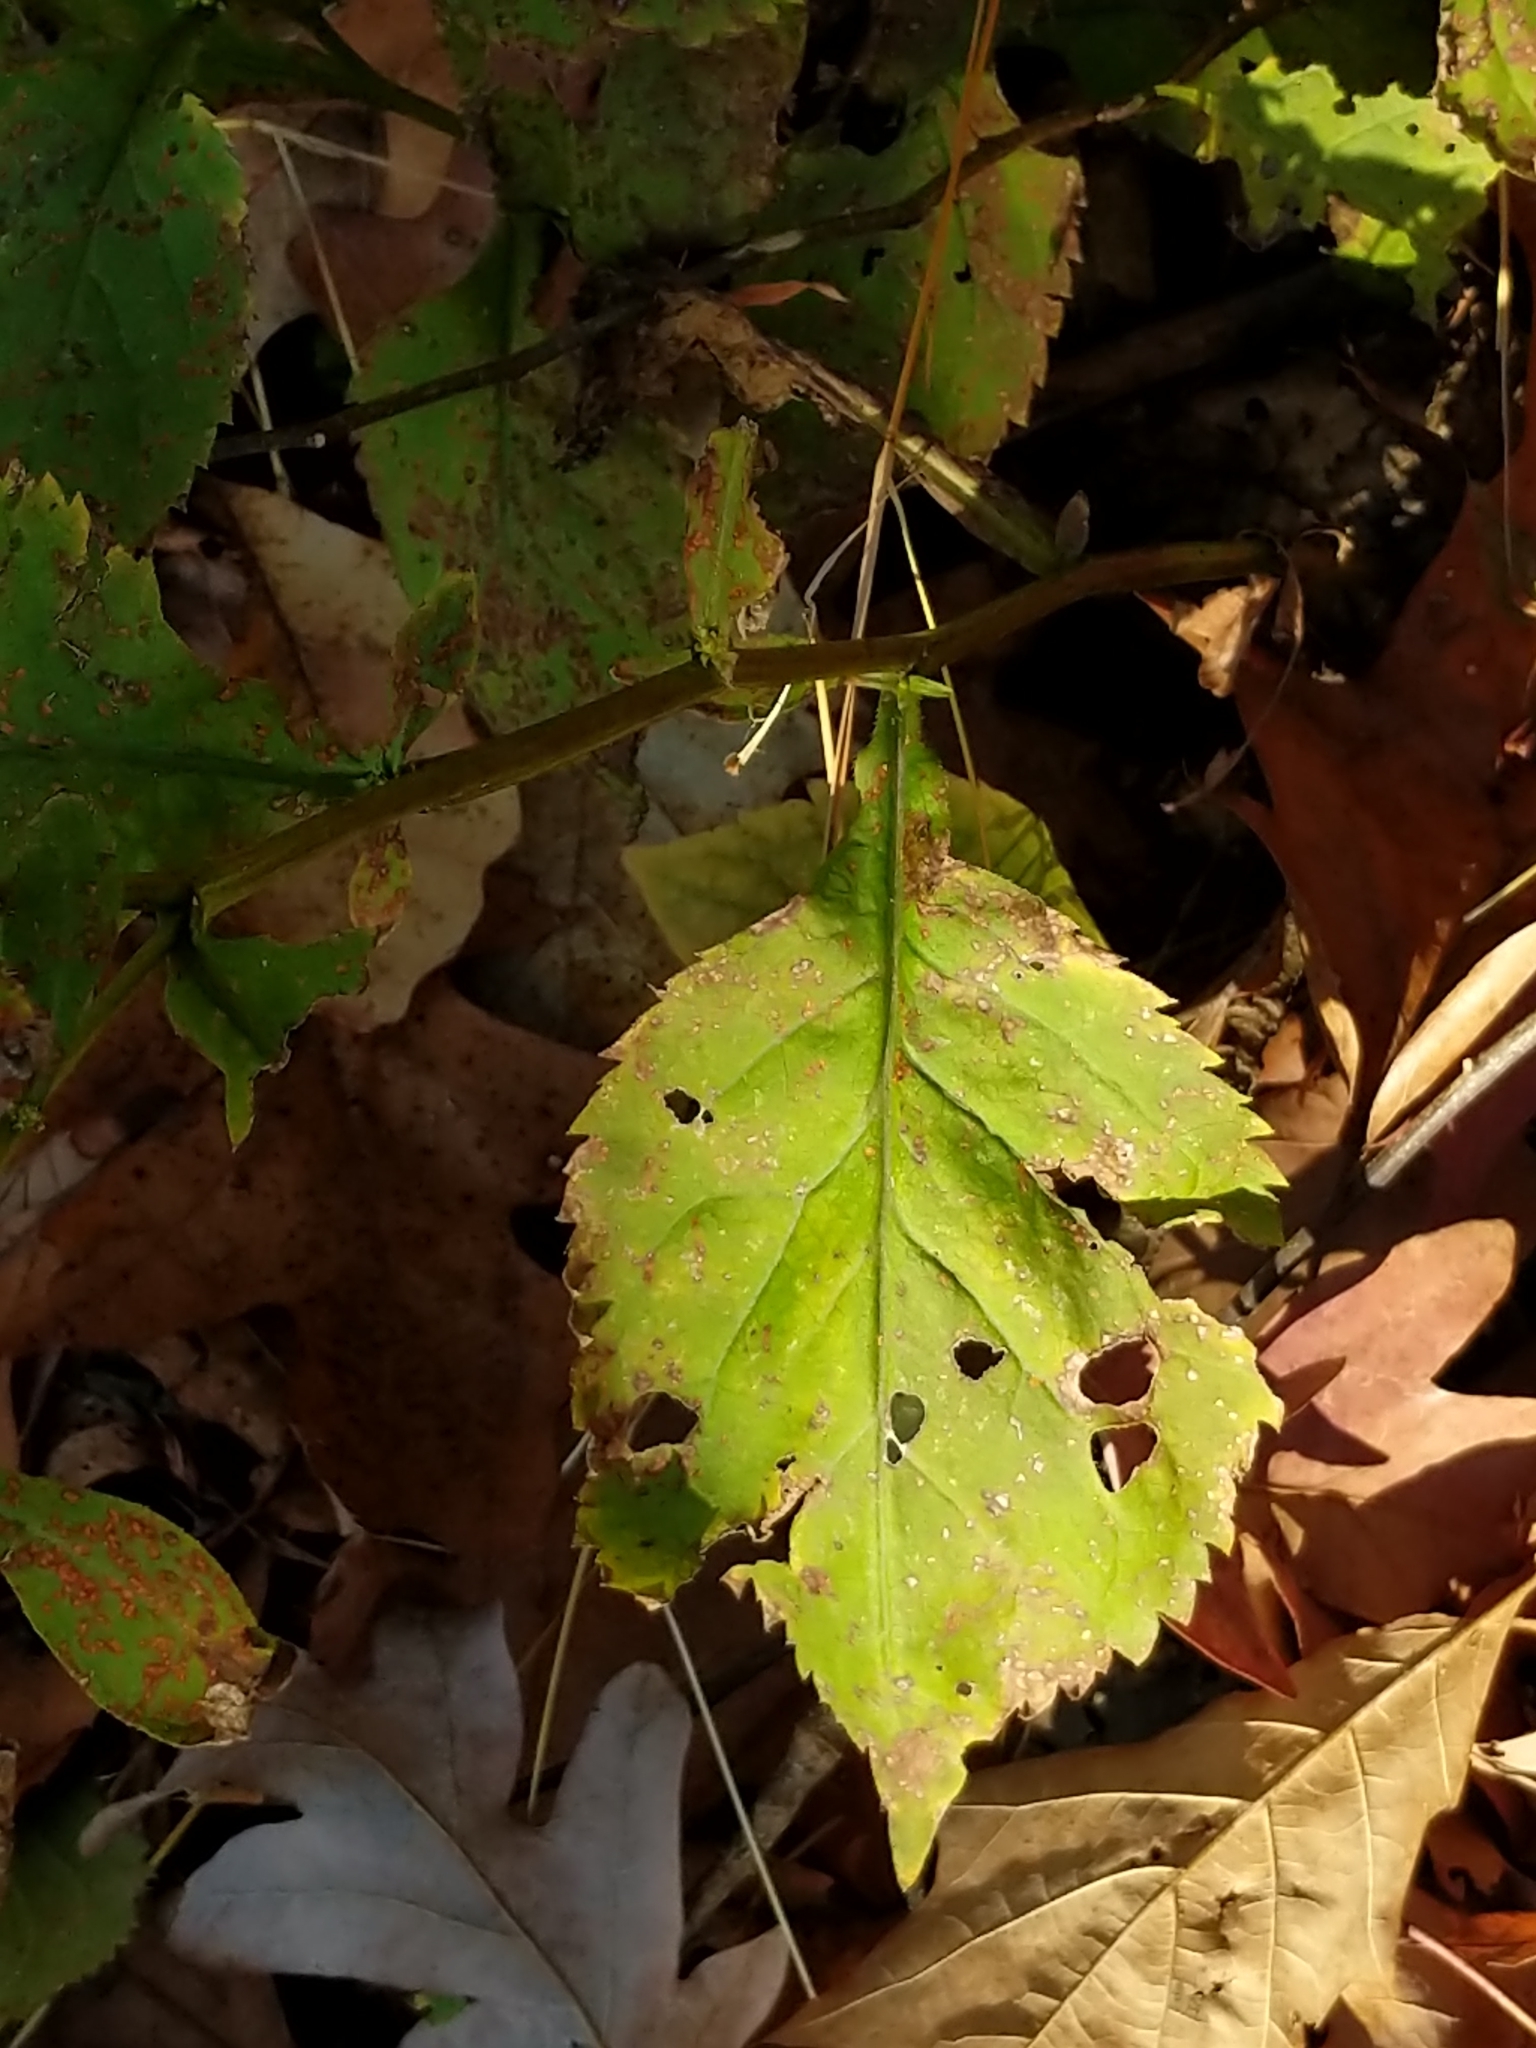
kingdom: Plantae
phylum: Tracheophyta
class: Magnoliopsida
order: Asterales
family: Asteraceae
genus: Solidago
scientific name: Solidago flexicaulis
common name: Zig-zag goldenrod
